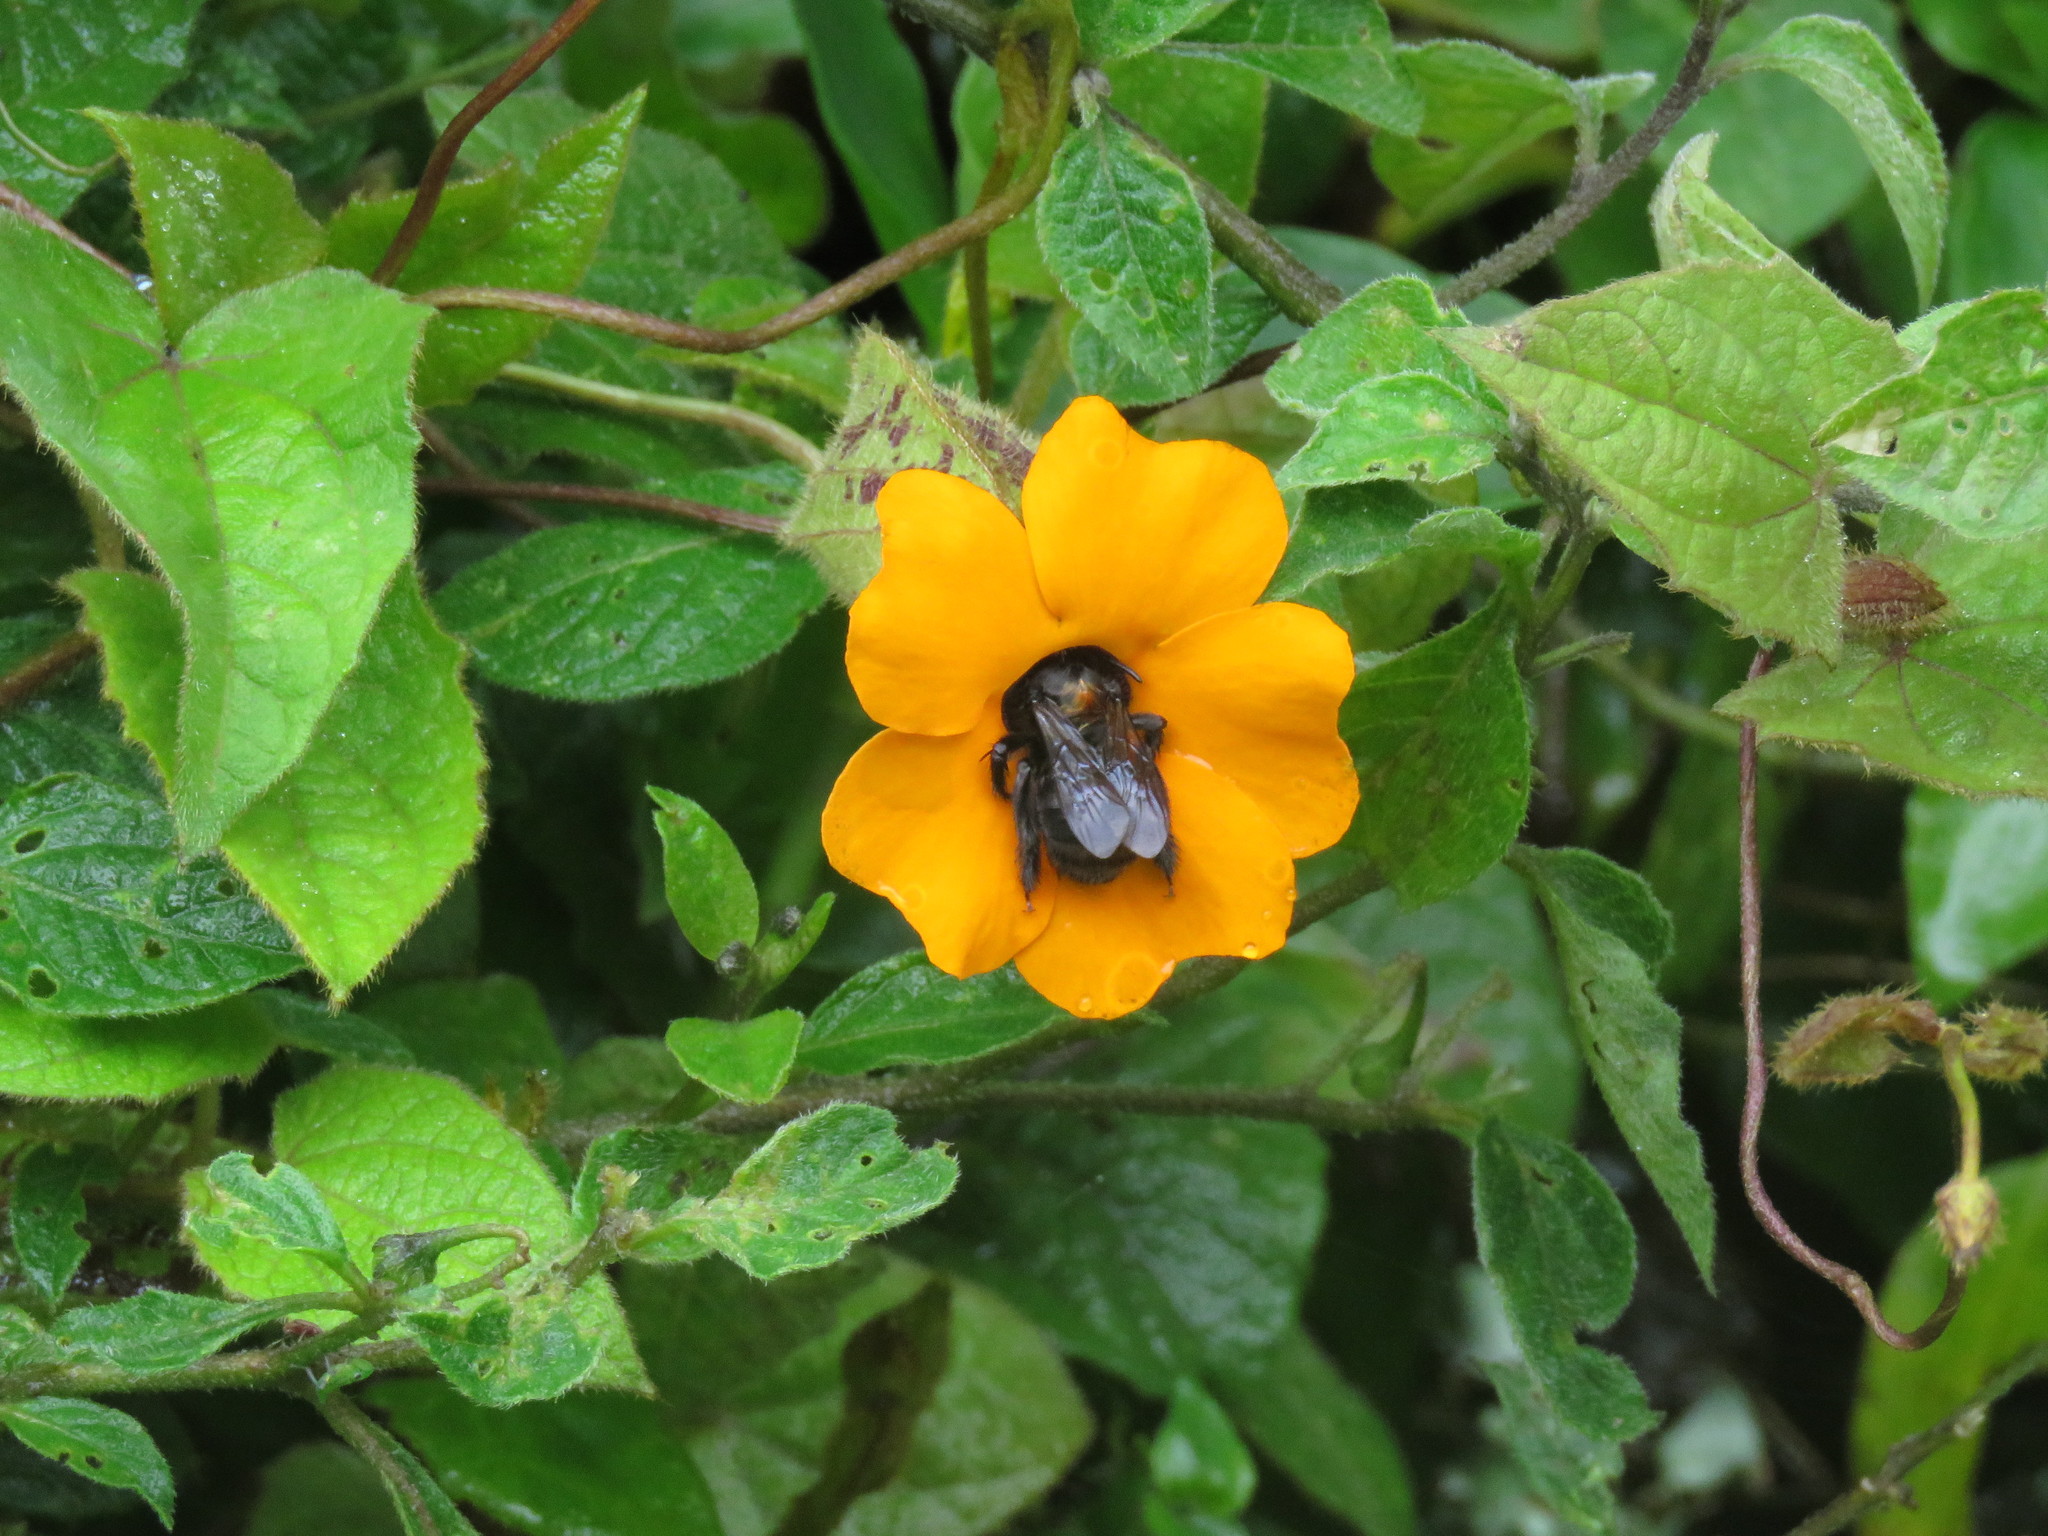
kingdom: Animalia
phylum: Arthropoda
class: Insecta
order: Hymenoptera
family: Apidae
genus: Thygater
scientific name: Thygater aethiops
